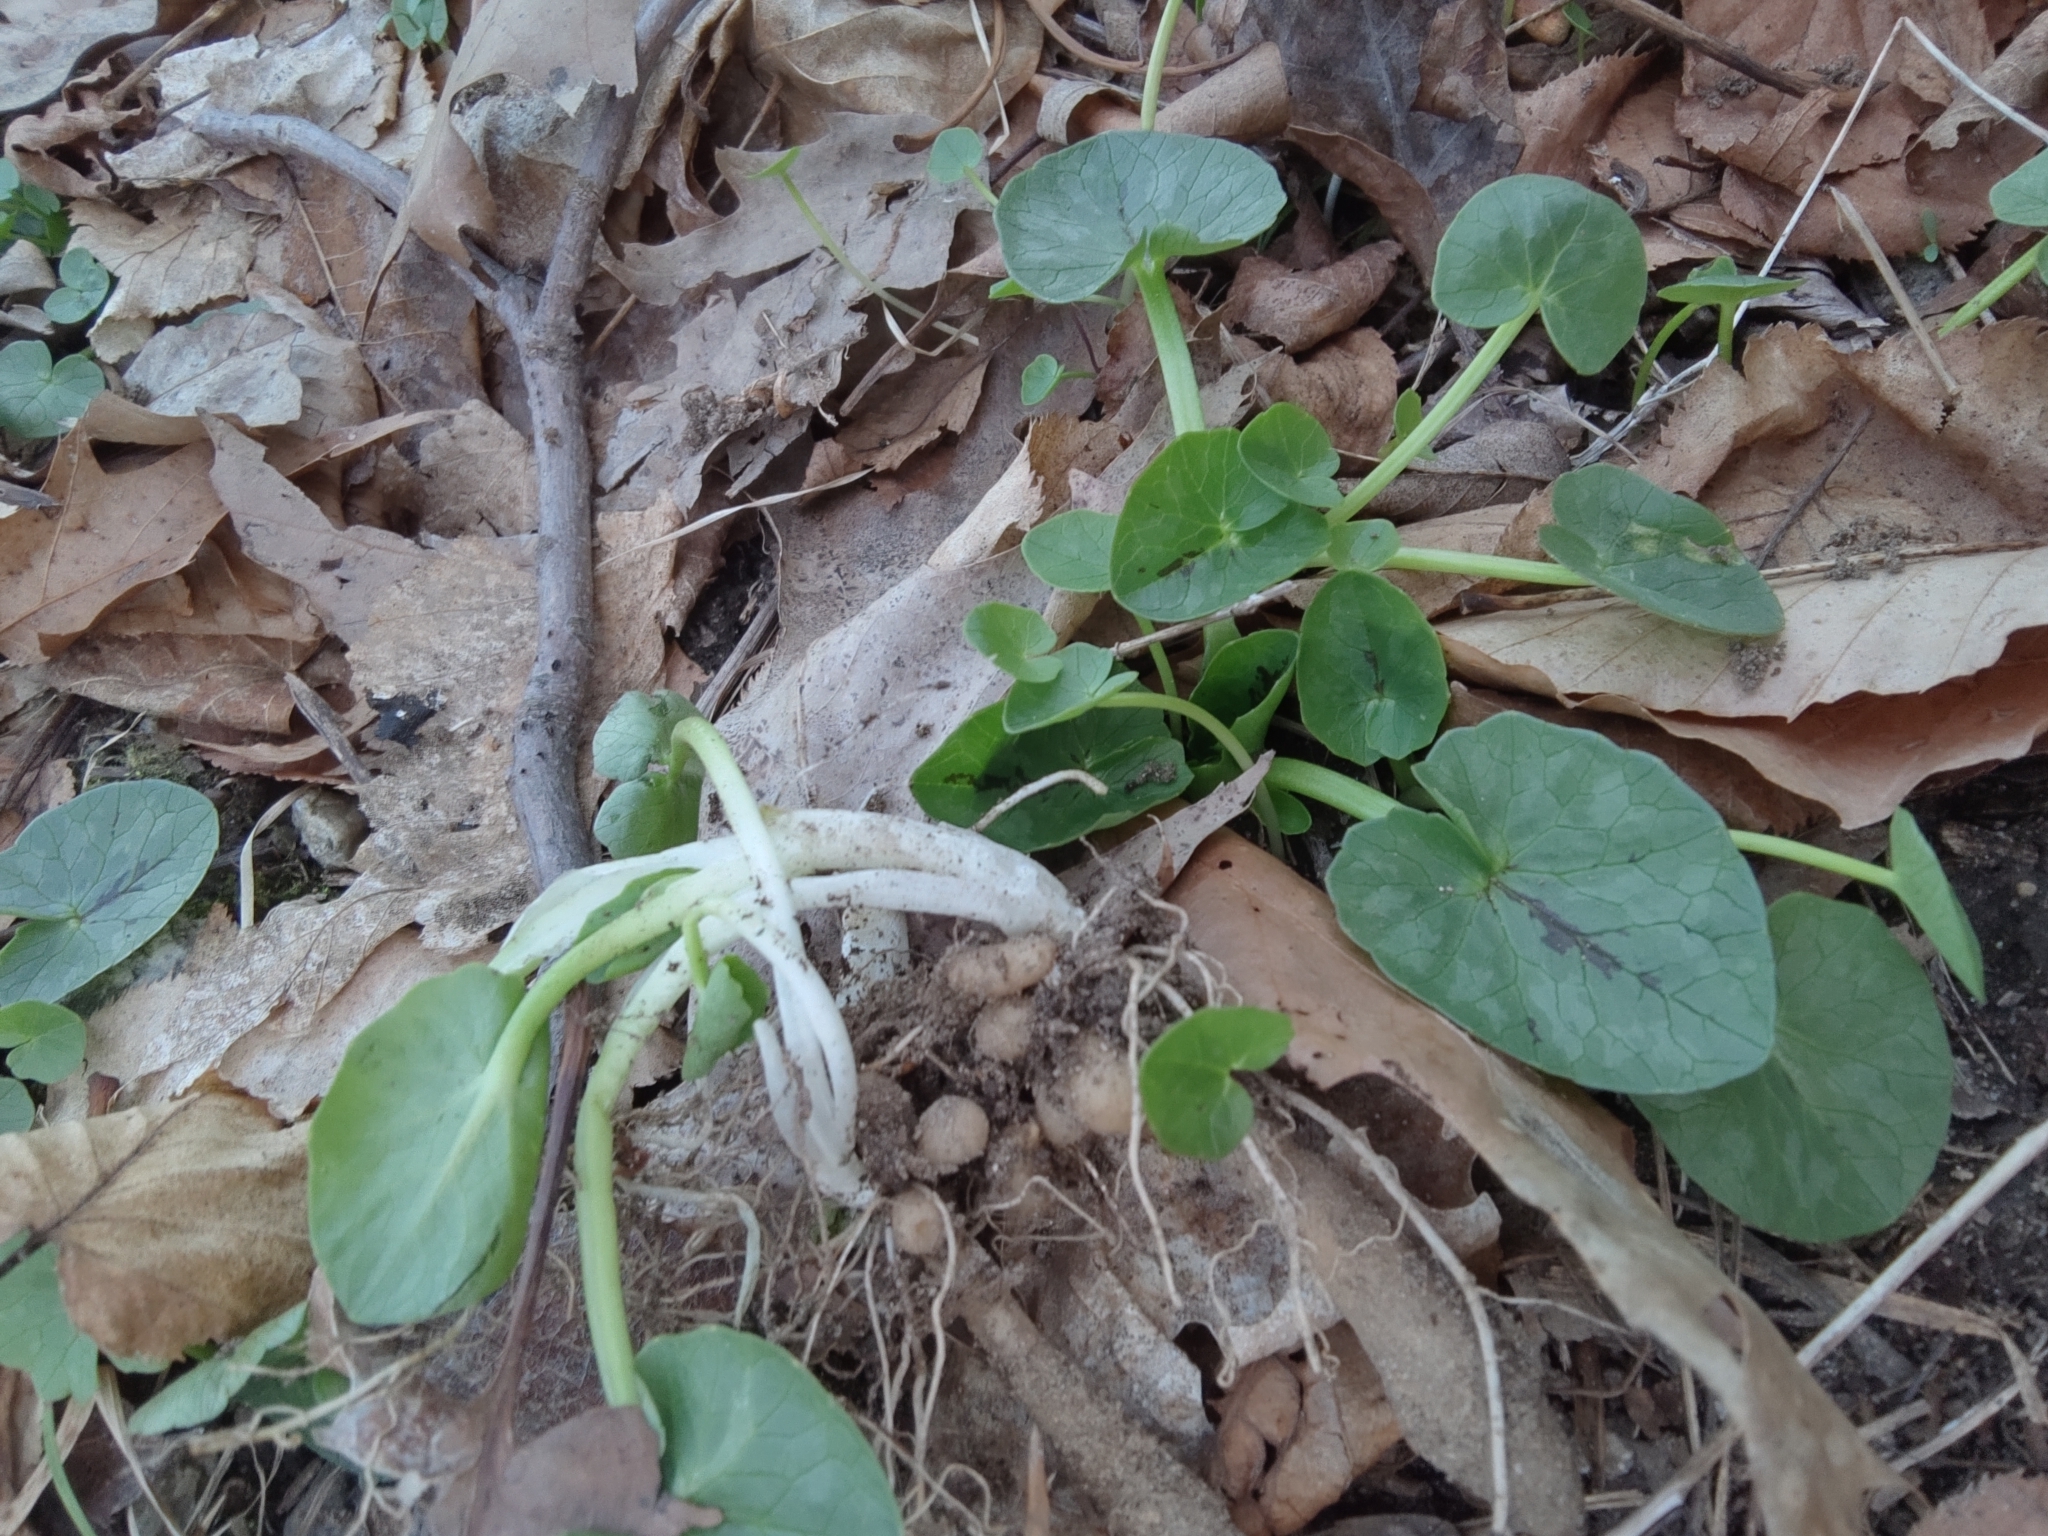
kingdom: Plantae
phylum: Tracheophyta
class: Magnoliopsida
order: Ranunculales
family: Ranunculaceae
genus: Ficaria
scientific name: Ficaria verna
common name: Lesser celandine
